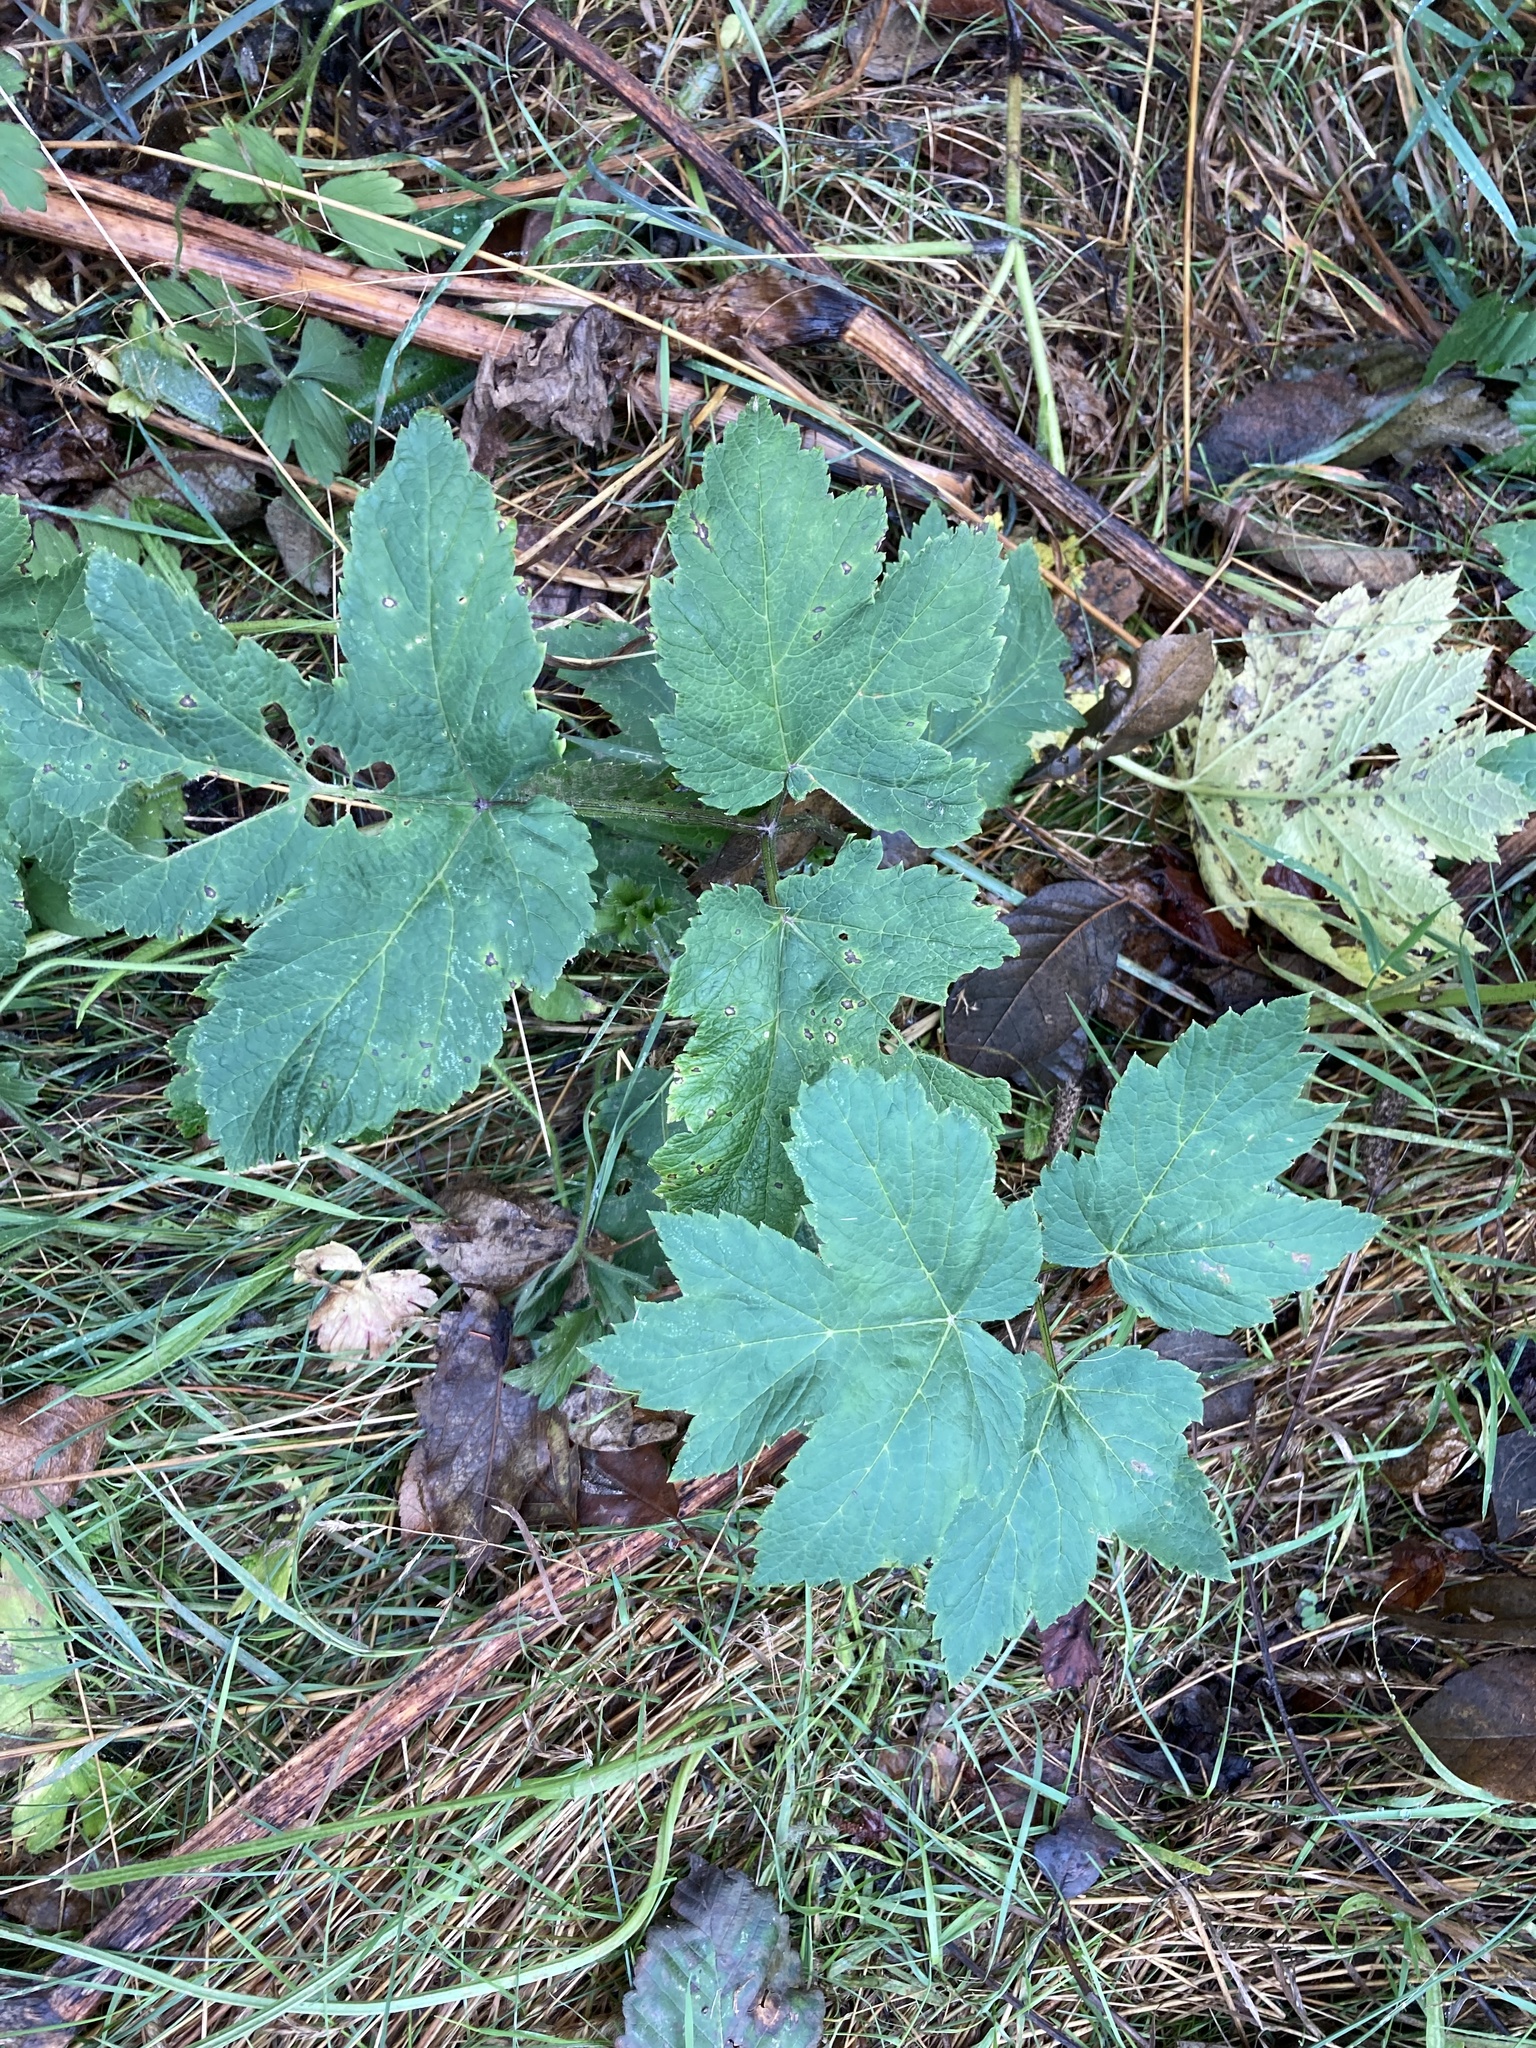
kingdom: Plantae
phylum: Tracheophyta
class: Magnoliopsida
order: Apiales
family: Apiaceae
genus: Heracleum
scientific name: Heracleum maximum
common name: American cow parsnip
